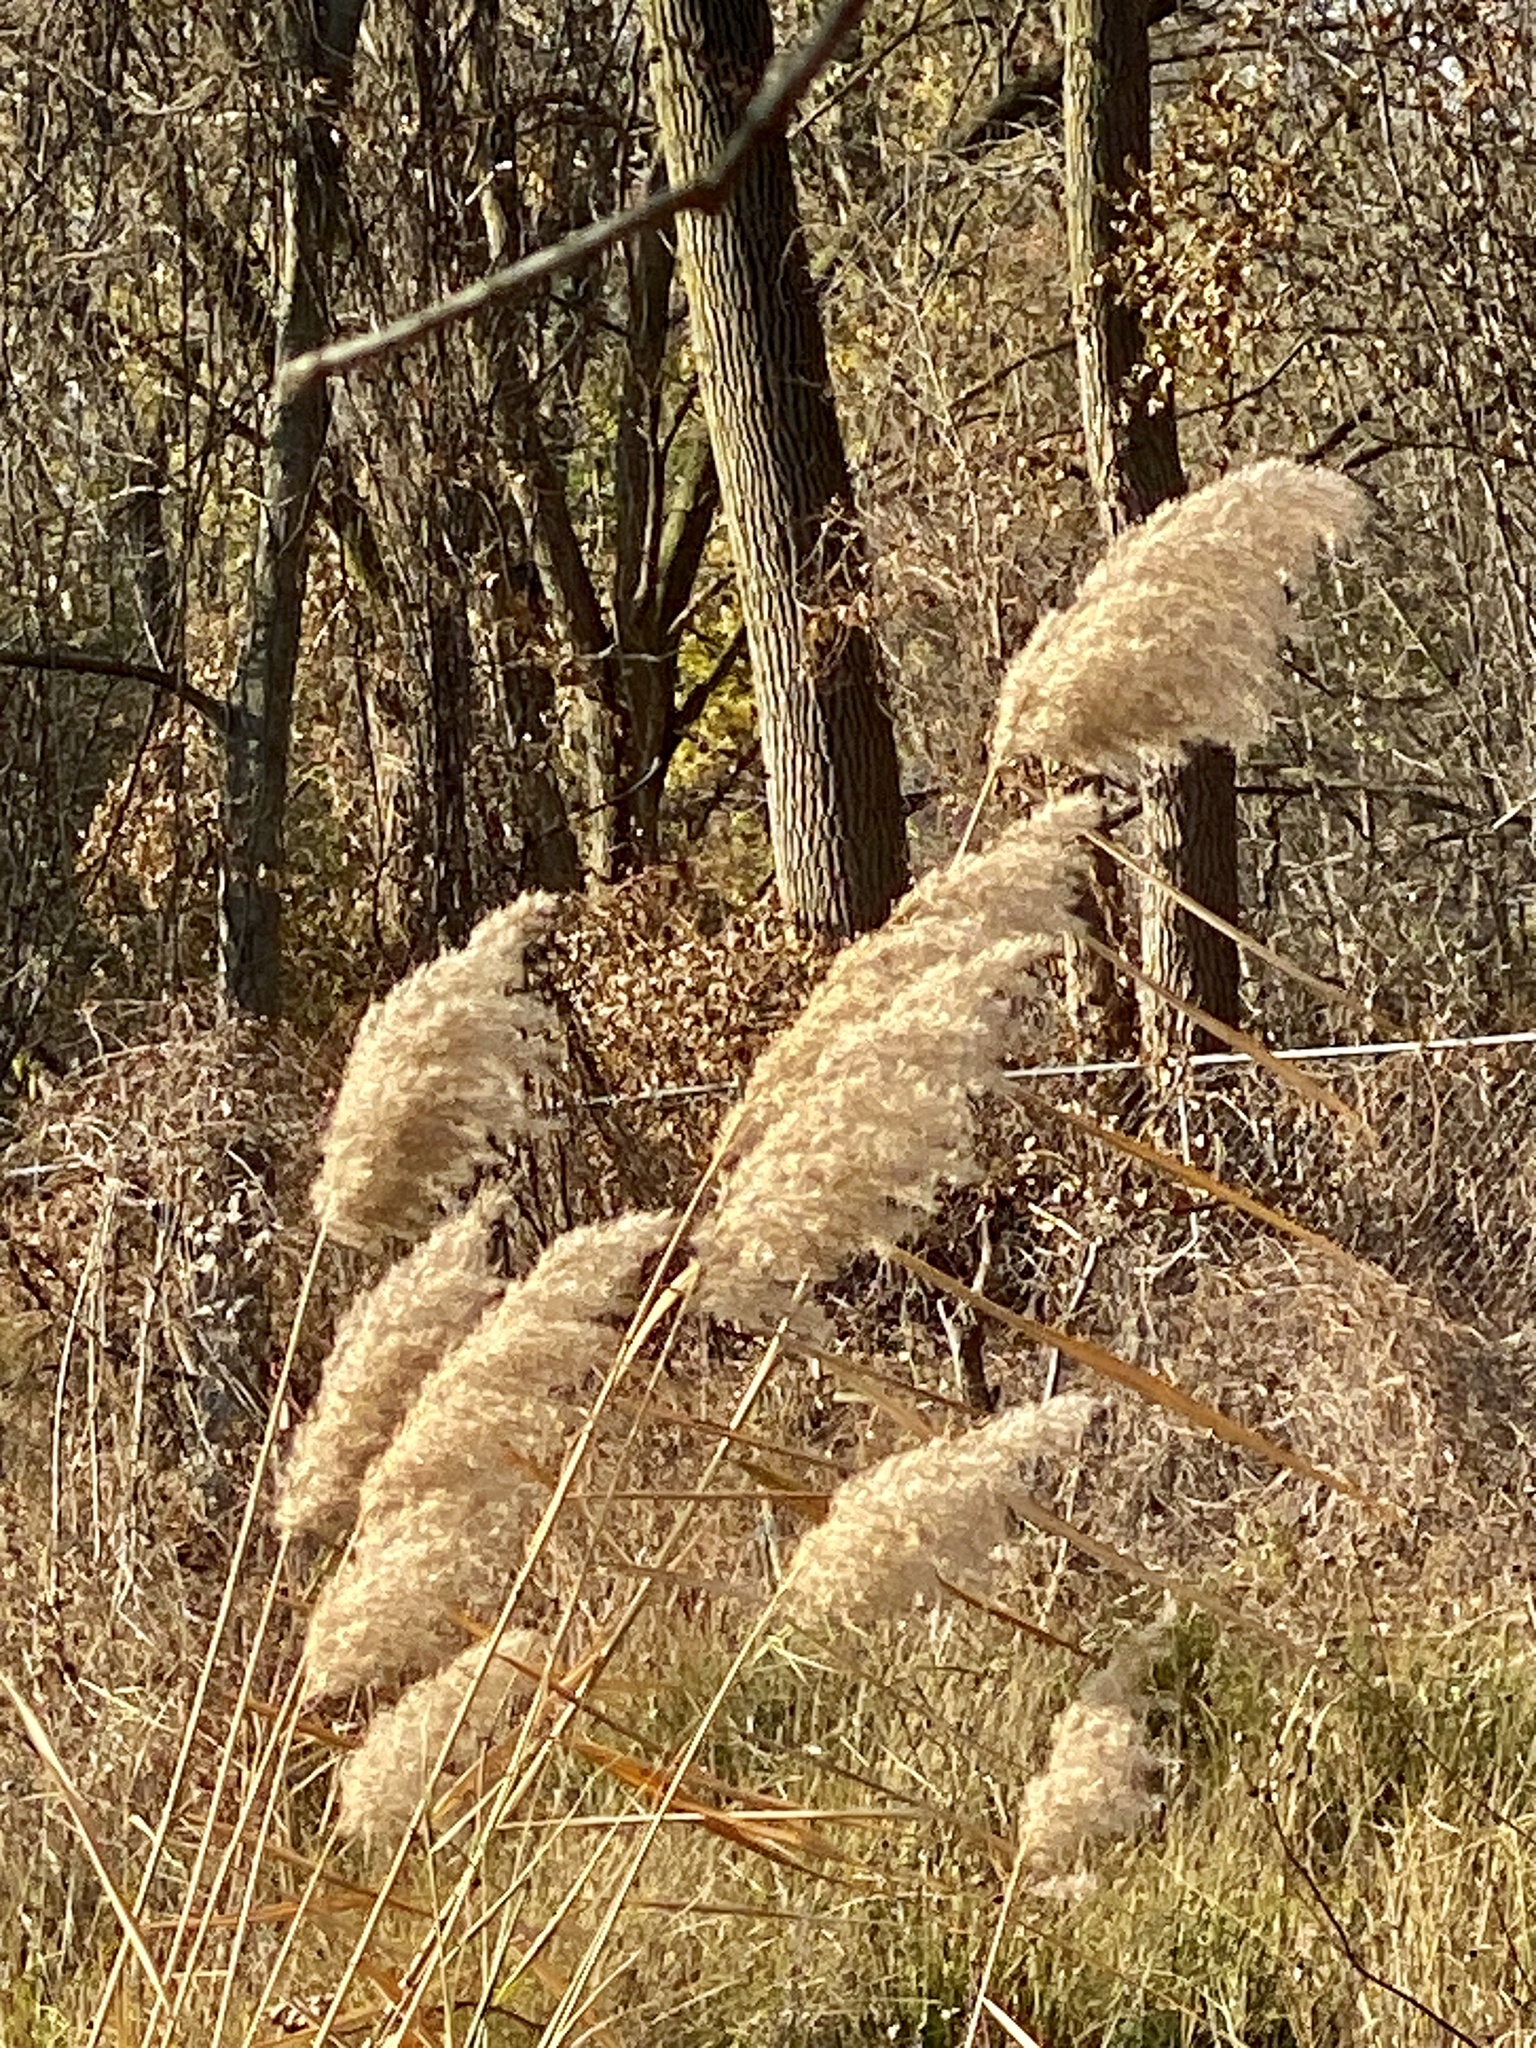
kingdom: Plantae
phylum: Tracheophyta
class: Liliopsida
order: Poales
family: Poaceae
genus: Phragmites
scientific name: Phragmites australis
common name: Common reed
